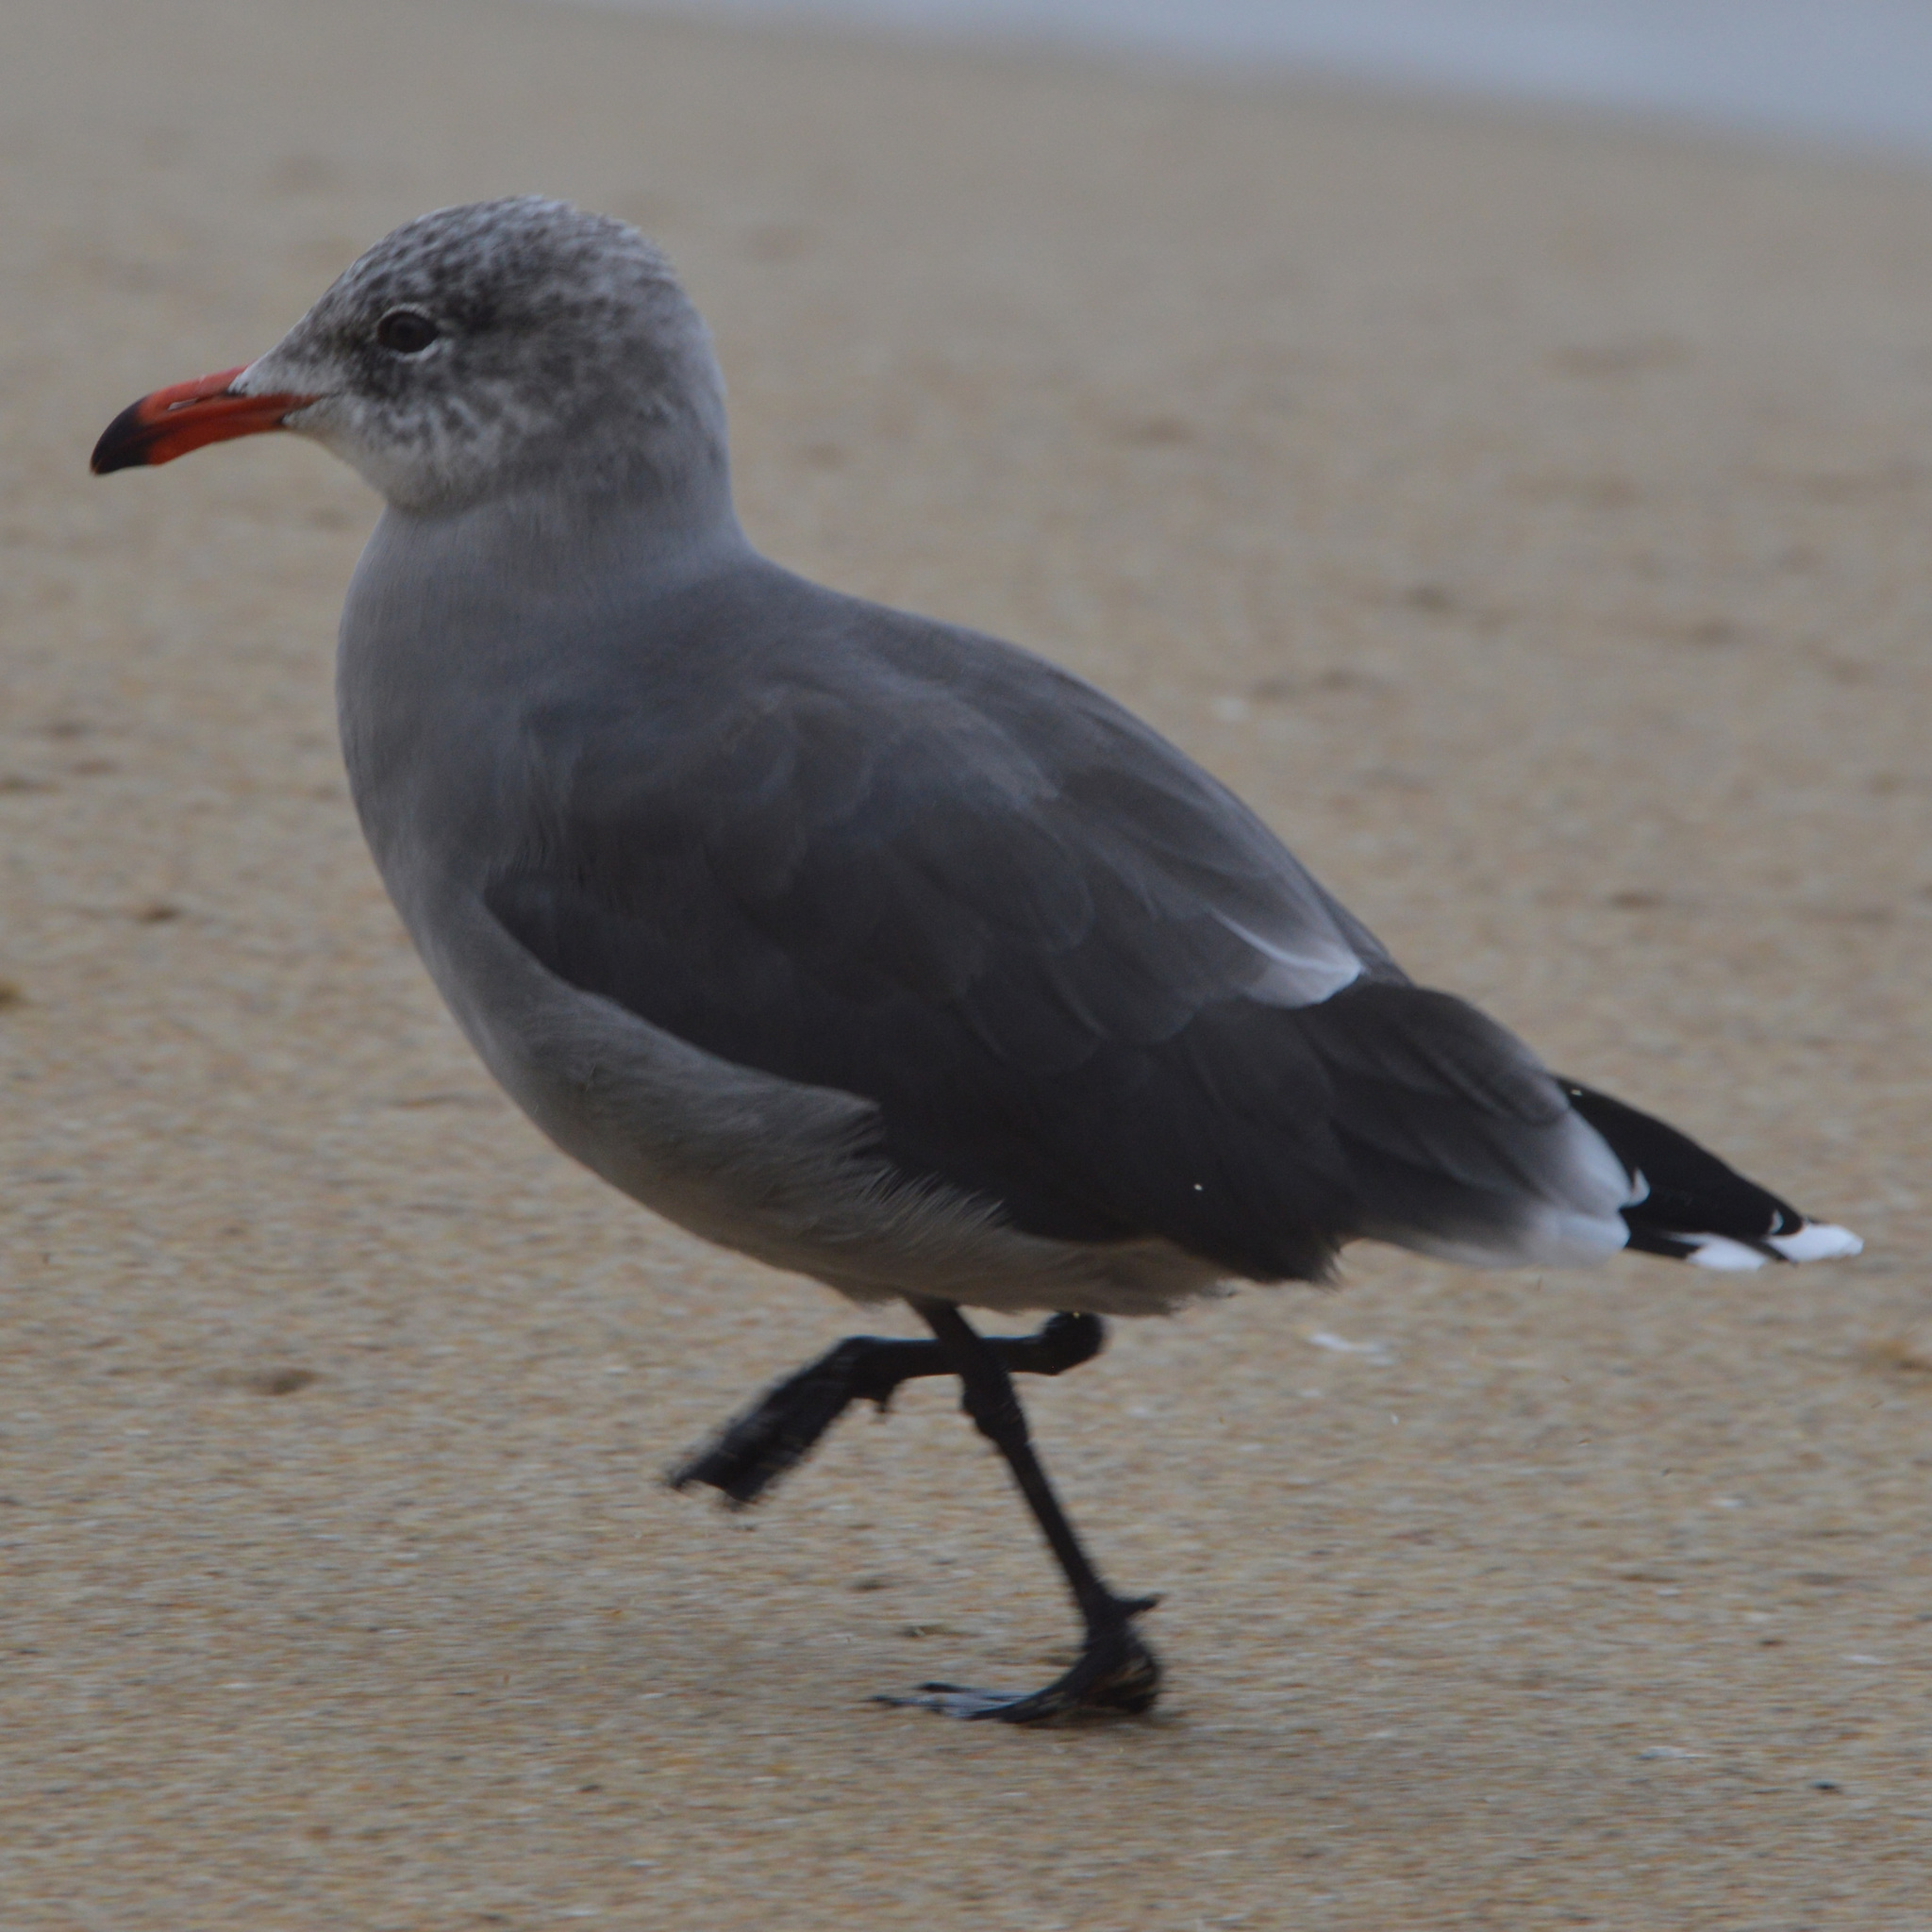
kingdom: Animalia
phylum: Chordata
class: Aves
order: Charadriiformes
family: Laridae
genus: Larus
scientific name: Larus heermanni
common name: Heermann's gull
